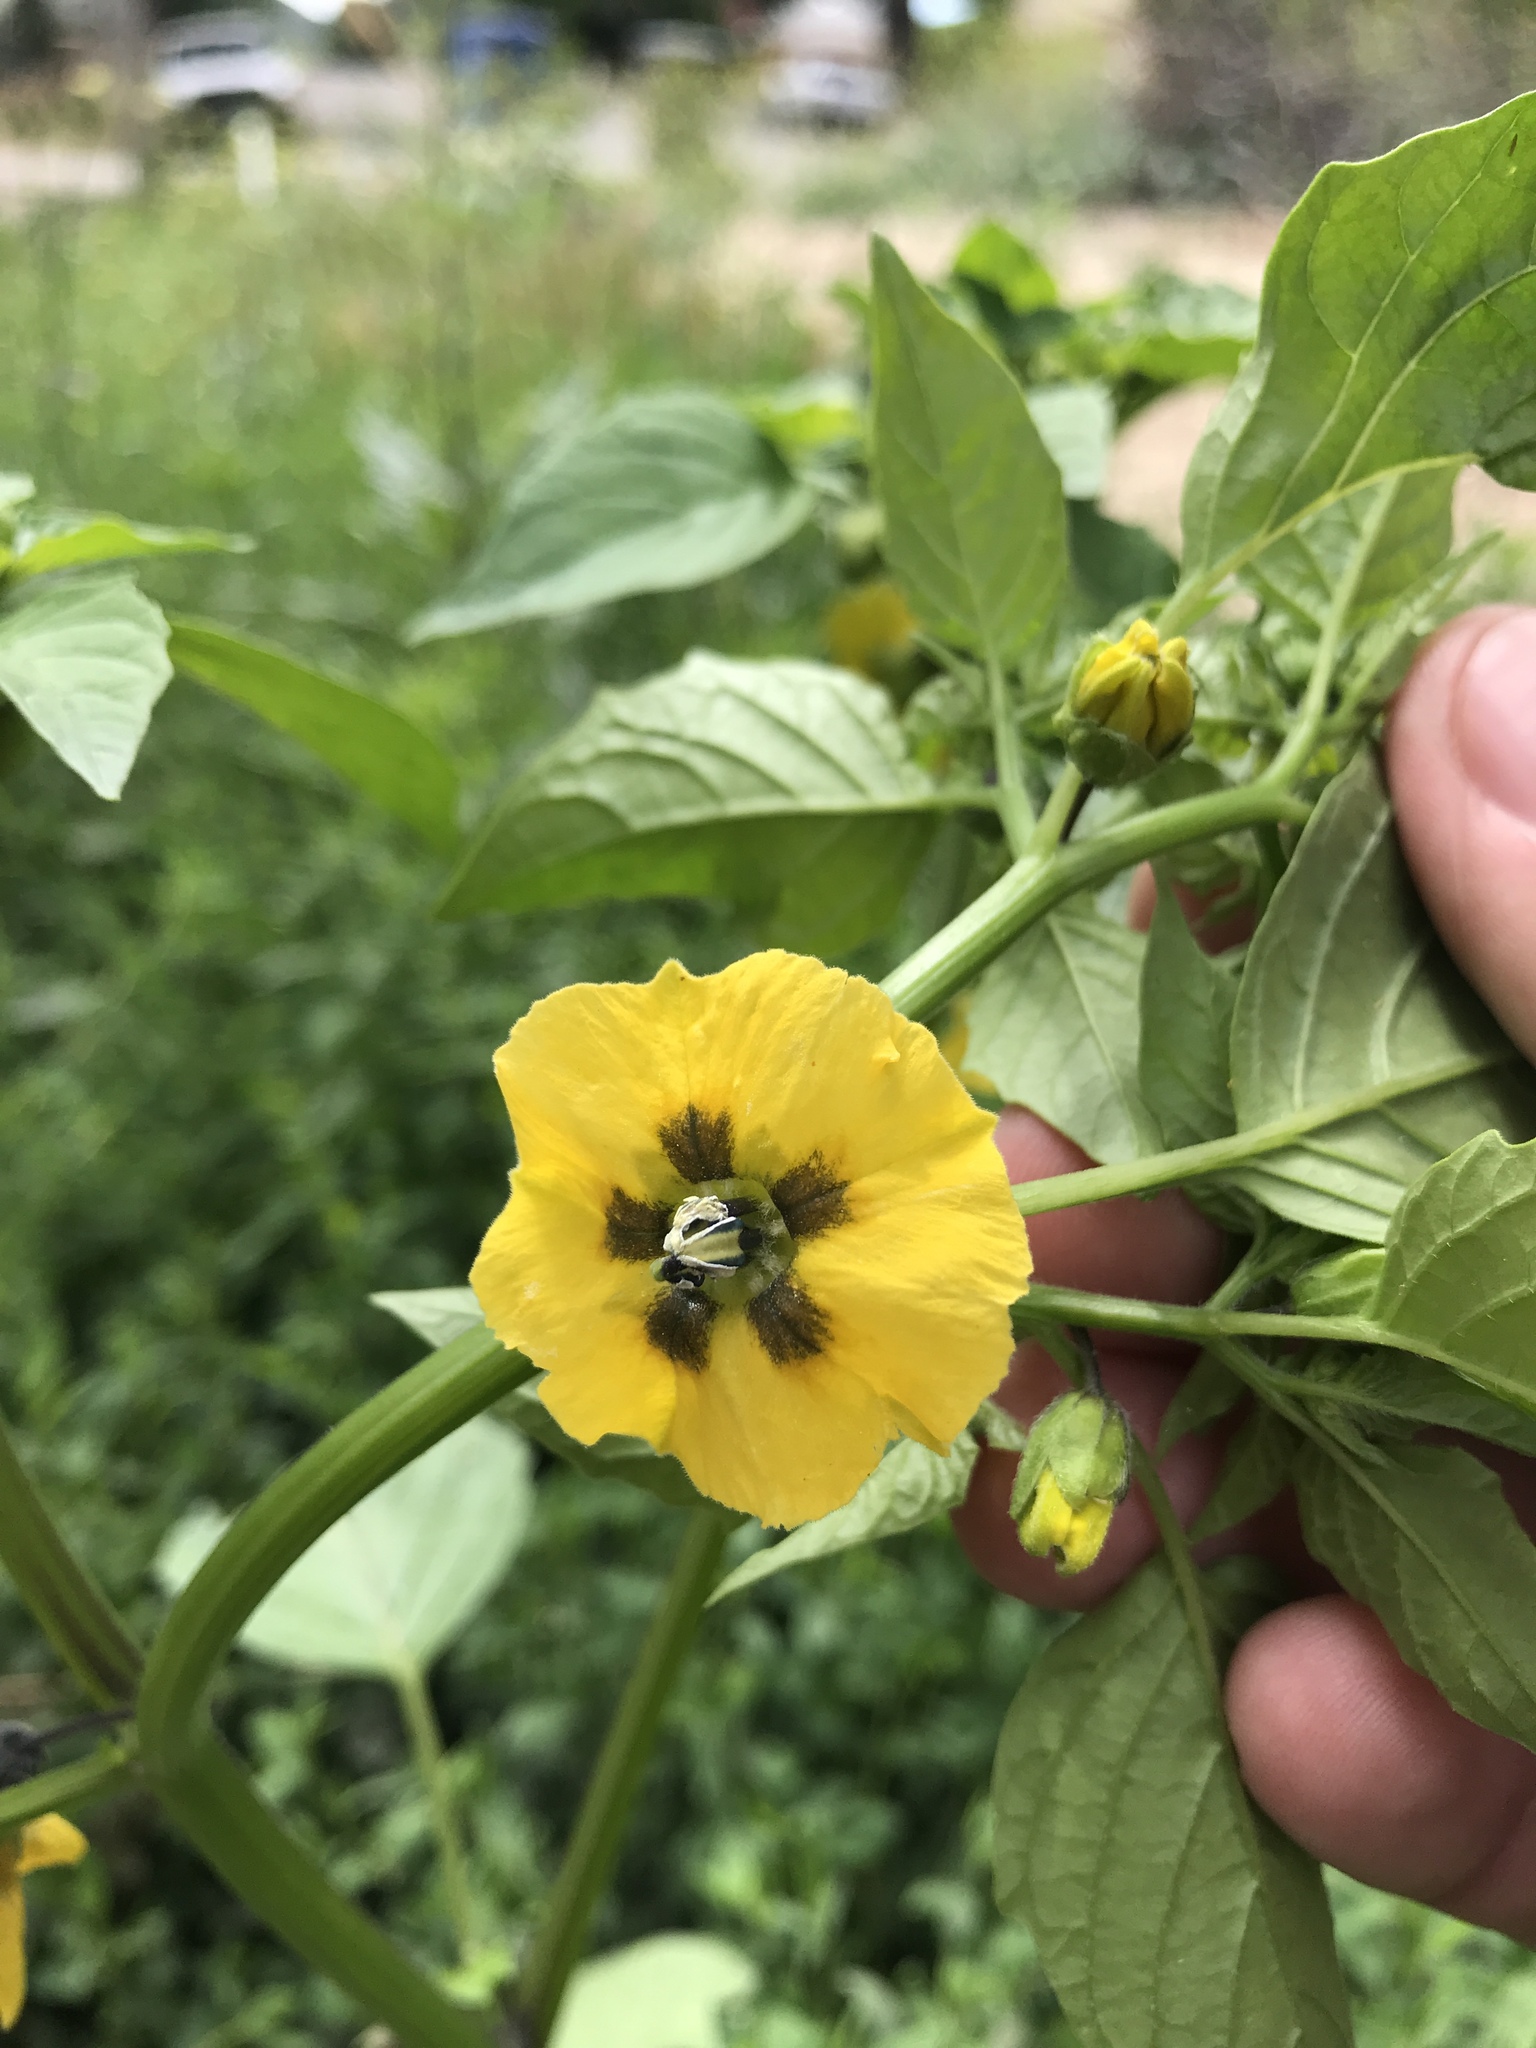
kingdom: Plantae
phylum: Tracheophyta
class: Magnoliopsida
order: Solanales
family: Solanaceae
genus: Physalis
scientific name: Physalis philadelphica
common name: Husk-tomato
